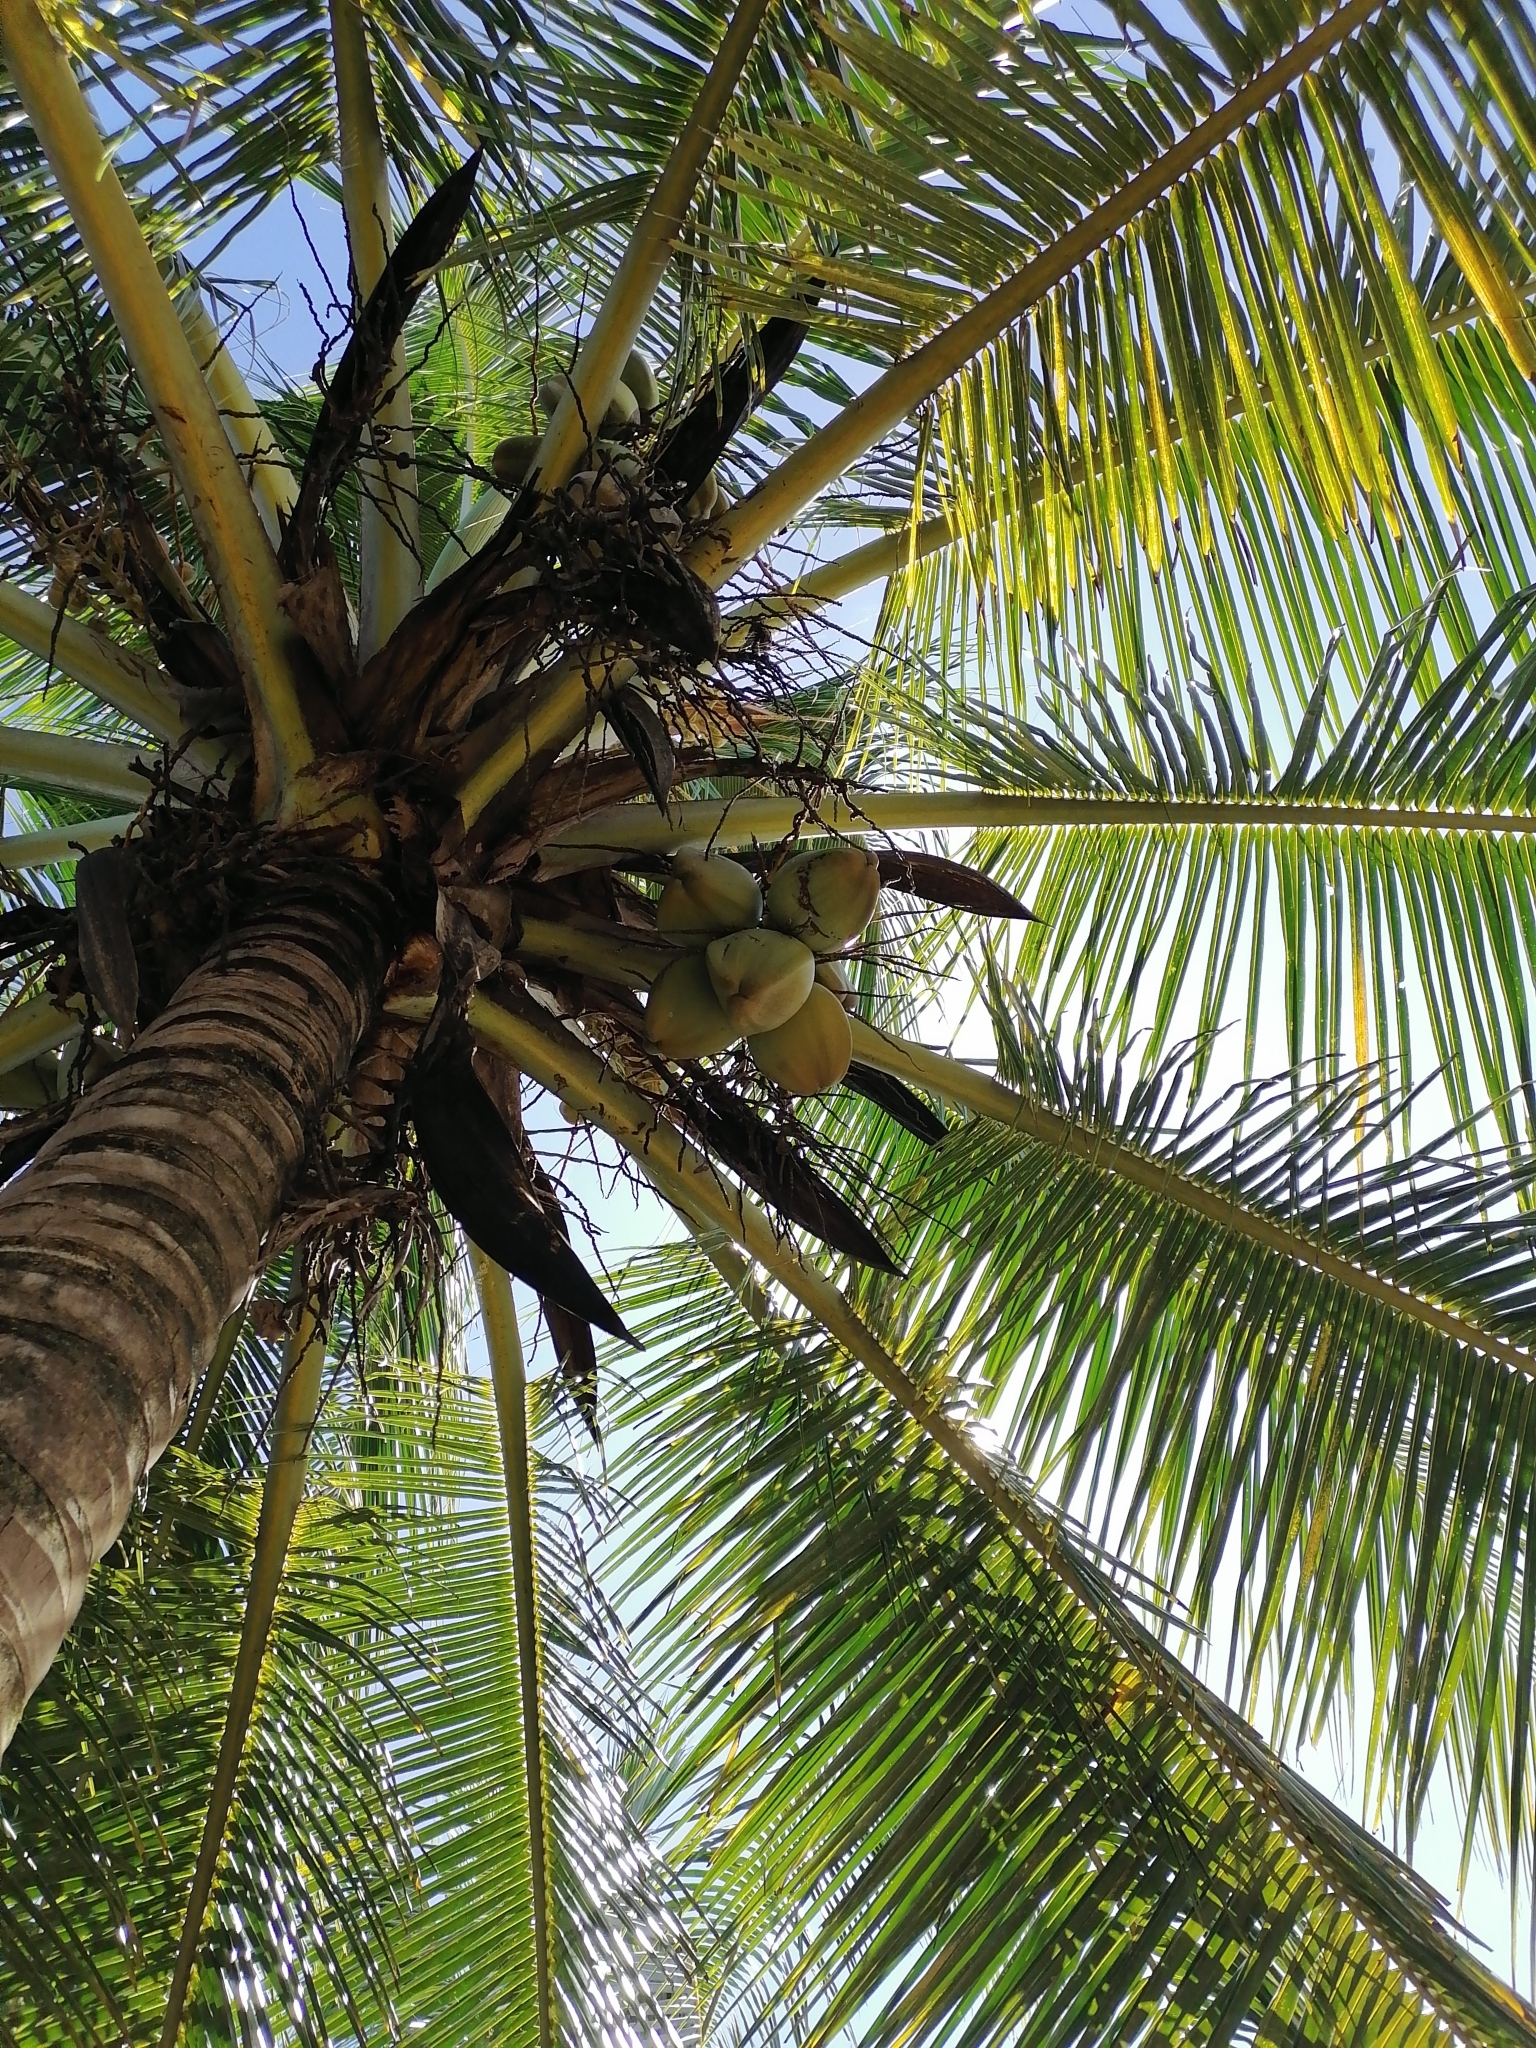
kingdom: Plantae
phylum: Tracheophyta
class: Liliopsida
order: Arecales
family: Arecaceae
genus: Cocos
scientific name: Cocos nucifera
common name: Coconut palm
